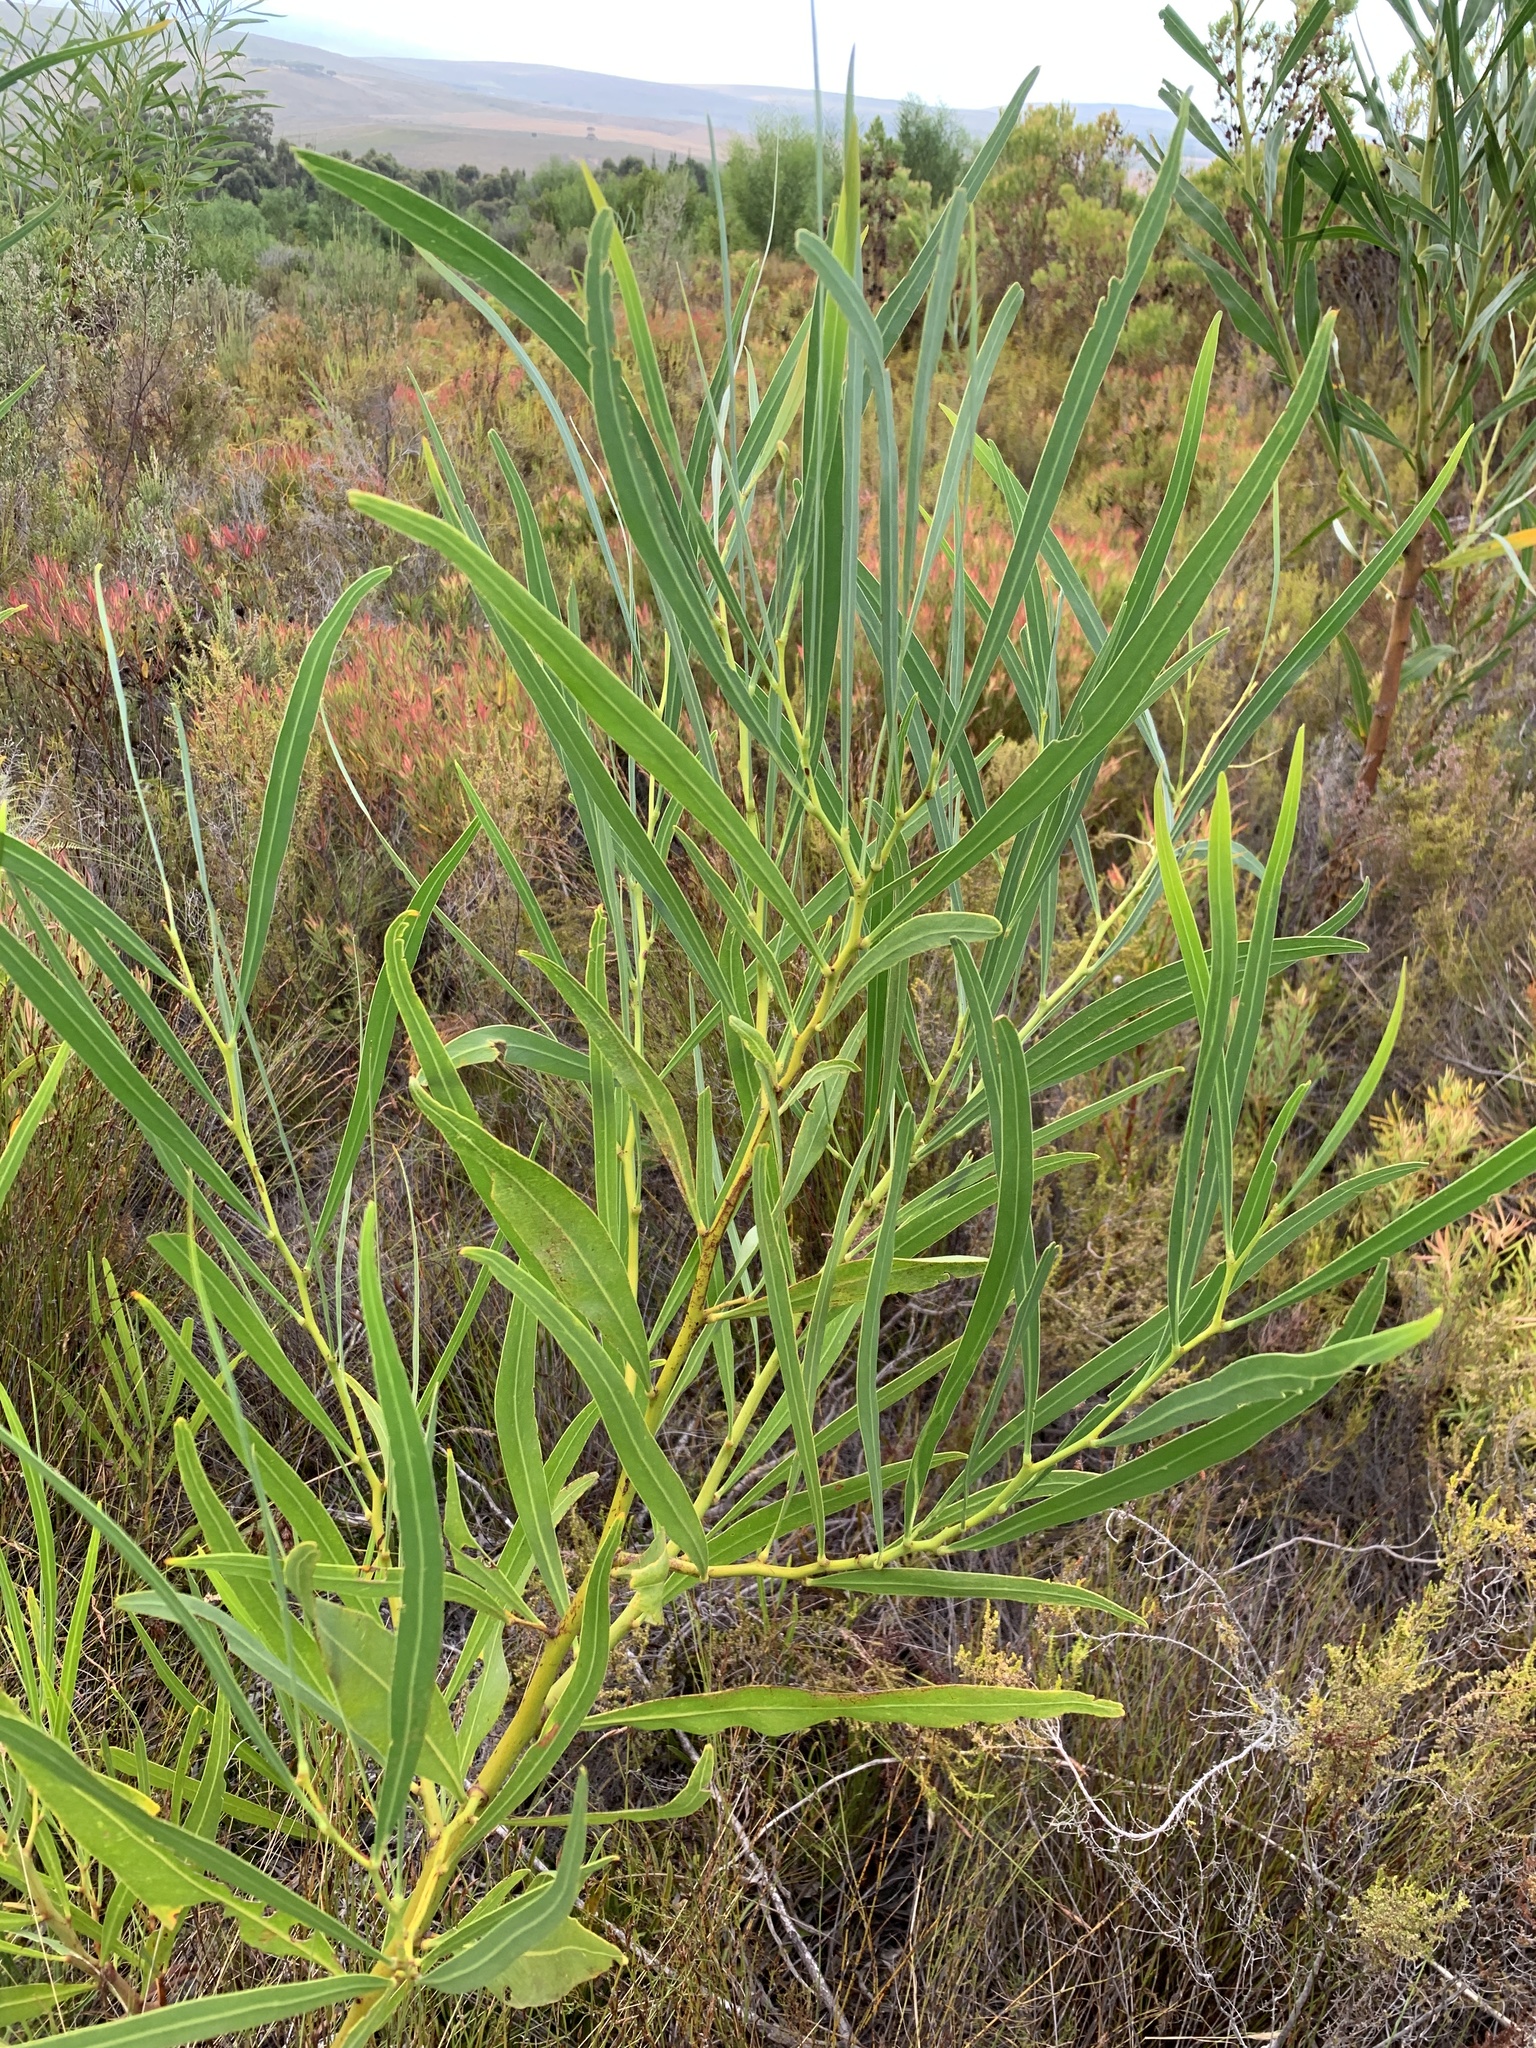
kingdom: Plantae
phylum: Tracheophyta
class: Magnoliopsida
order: Fabales
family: Fabaceae
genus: Acacia
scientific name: Acacia saligna
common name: Orange wattle
